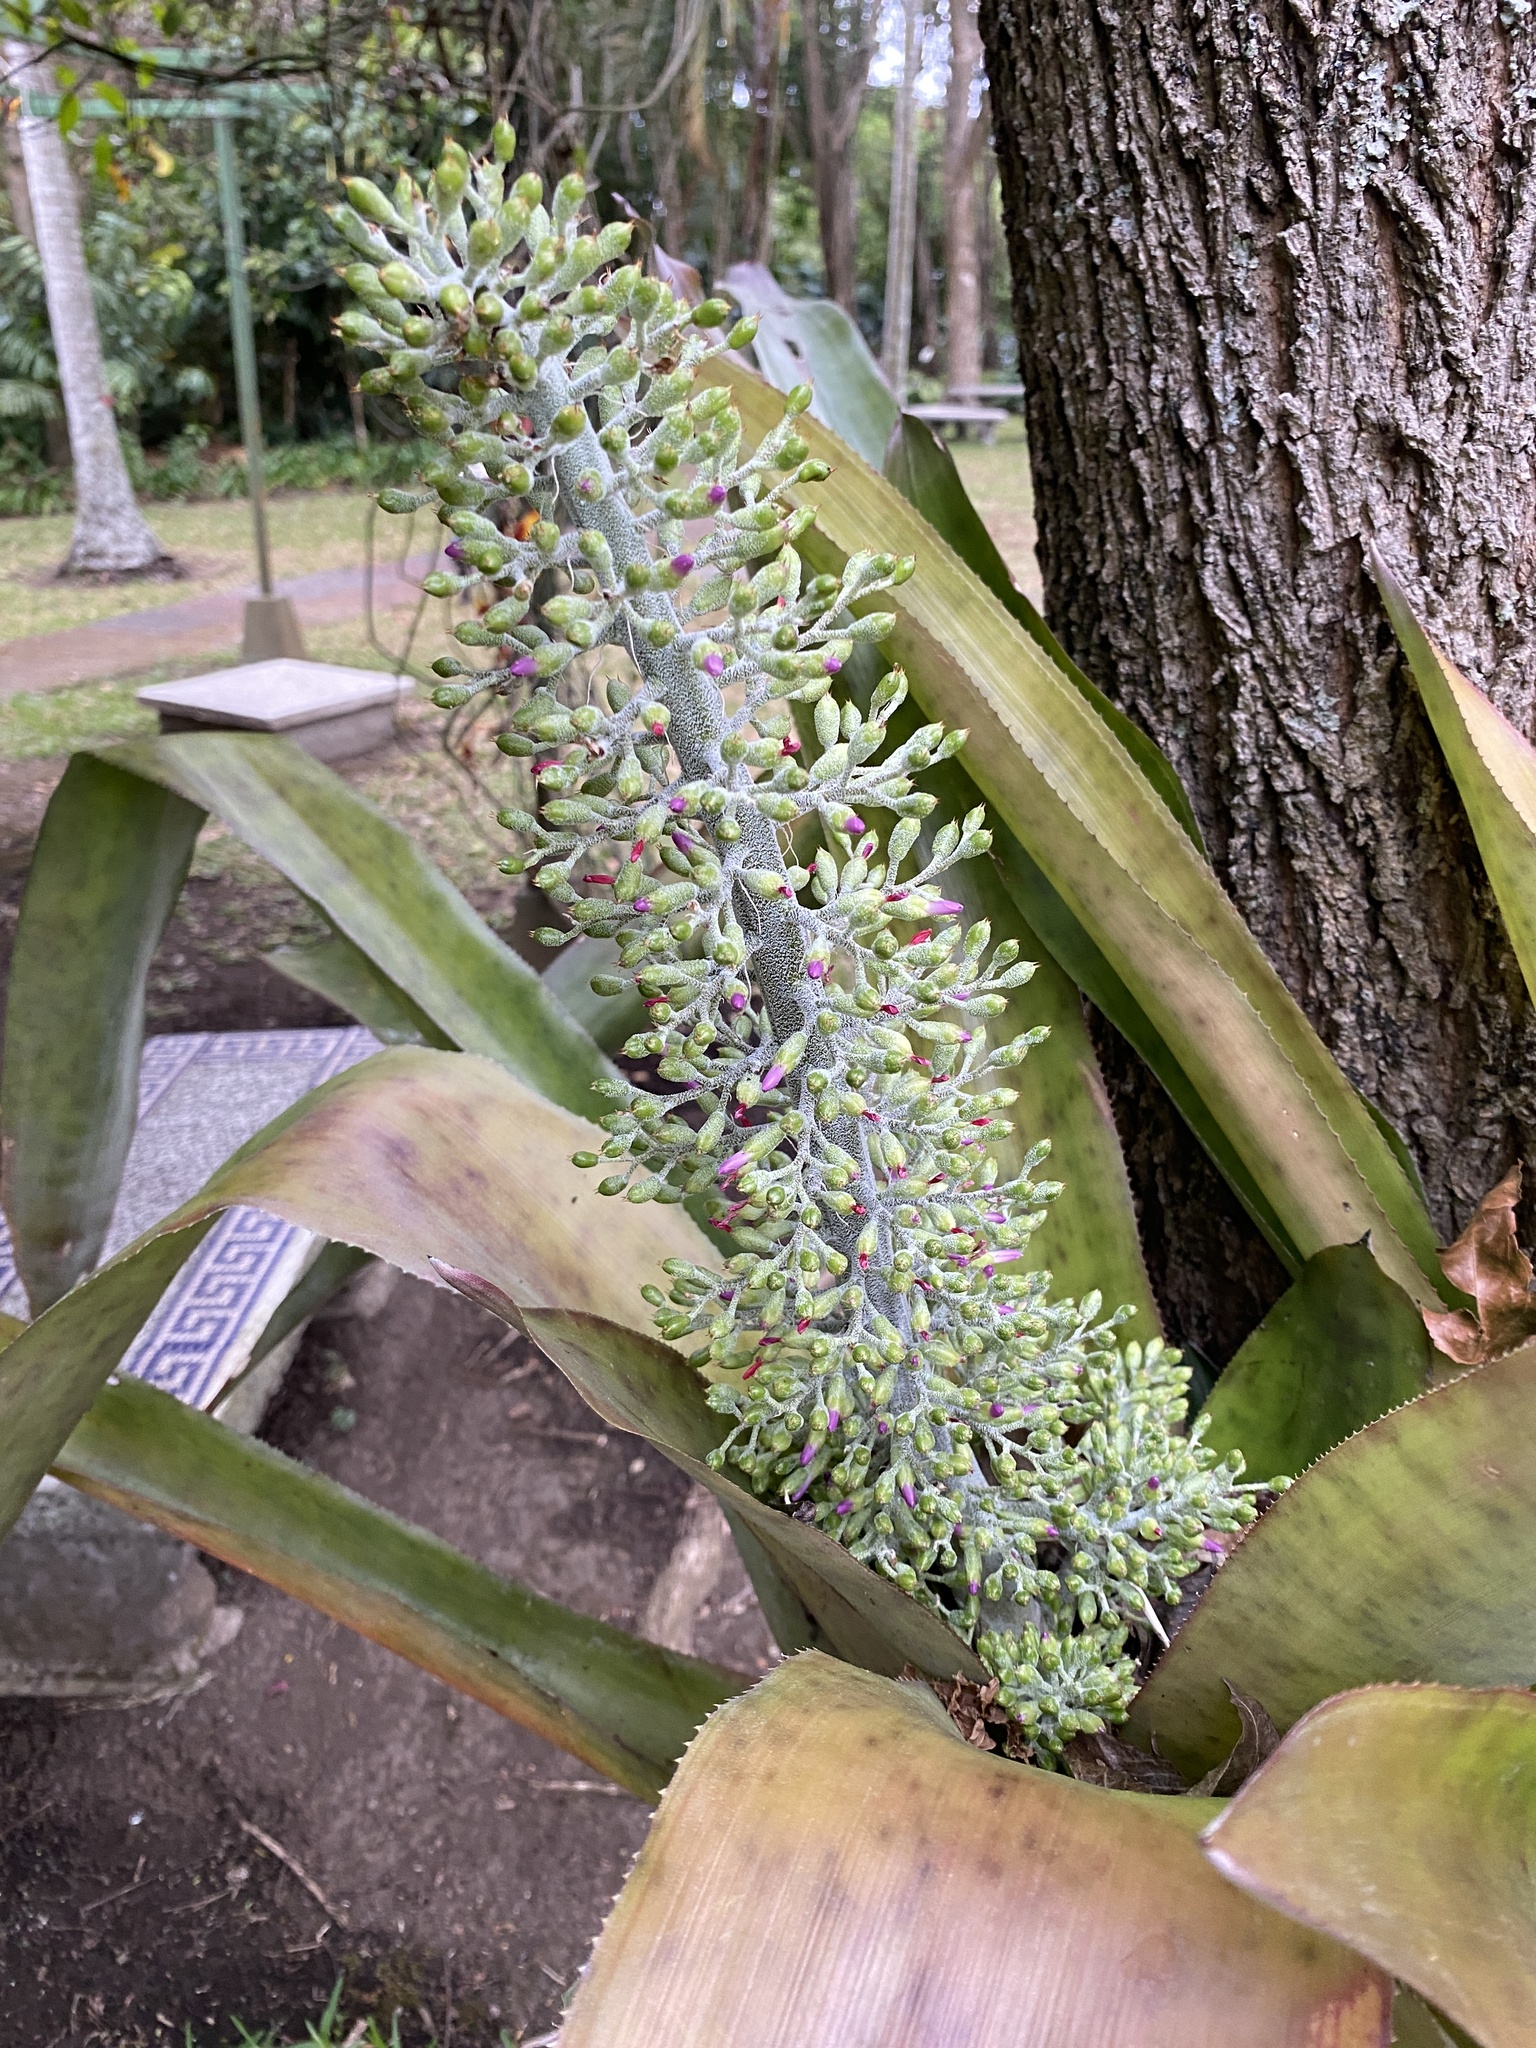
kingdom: Plantae
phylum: Tracheophyta
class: Liliopsida
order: Poales
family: Bromeliaceae
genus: Aechmea
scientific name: Aechmea mexicana
